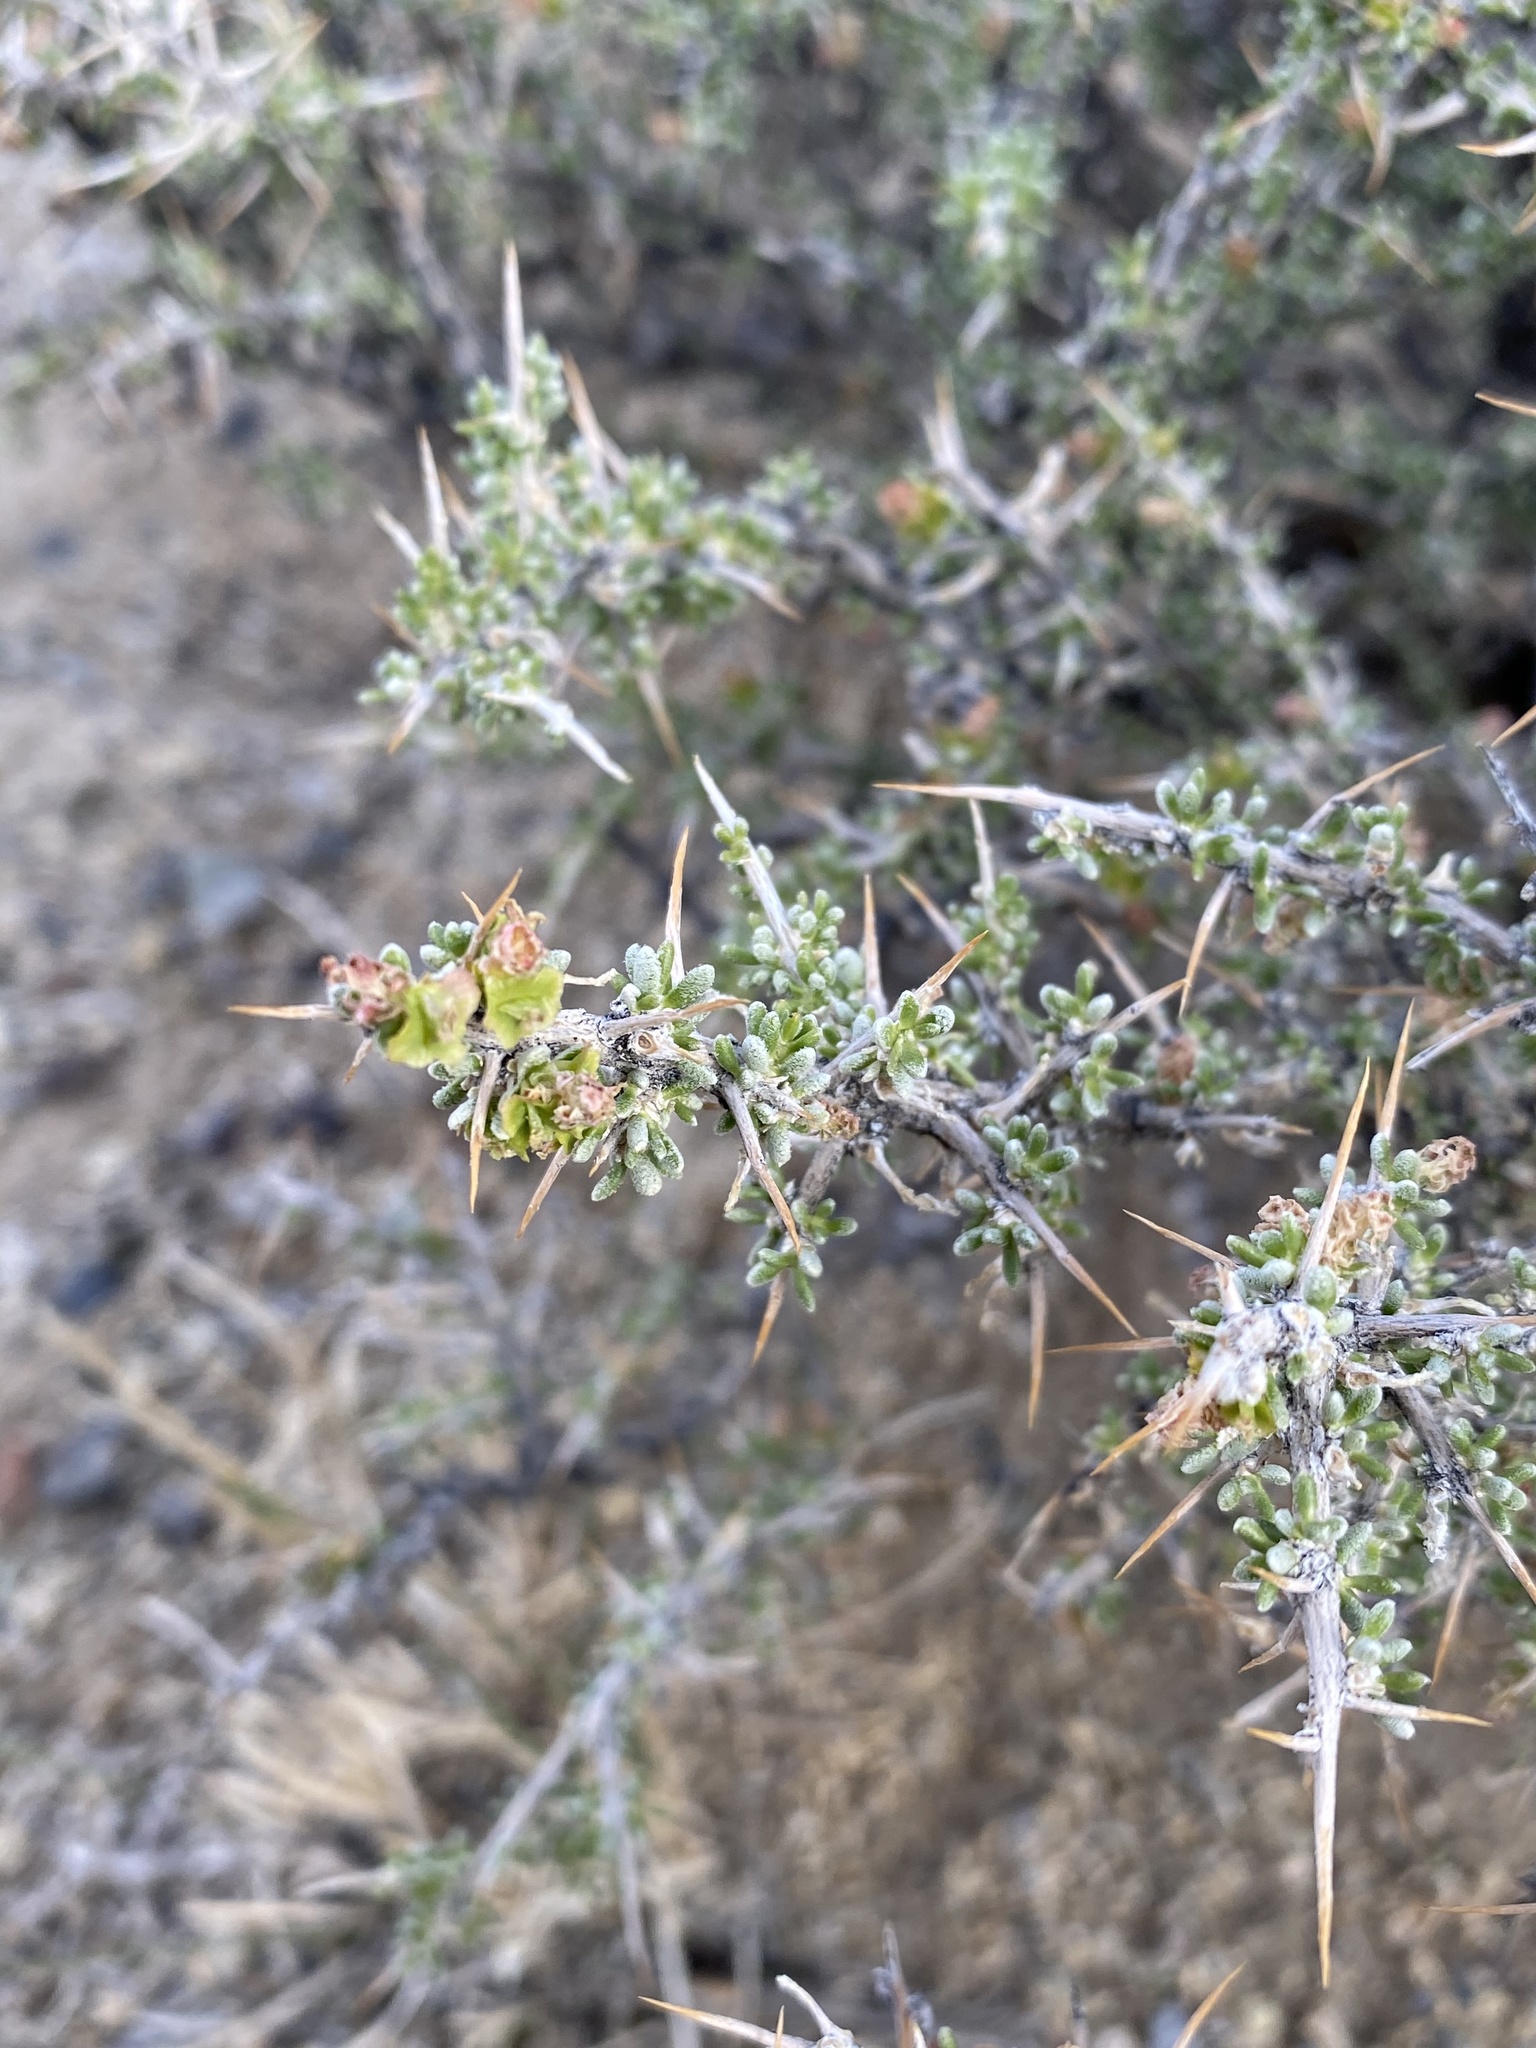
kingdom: Plantae
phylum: Tracheophyta
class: Magnoliopsida
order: Caryophyllales
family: Sarcobataceae
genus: Sarcobatus
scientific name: Sarcobatus baileyi
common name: Bailey greasewood
